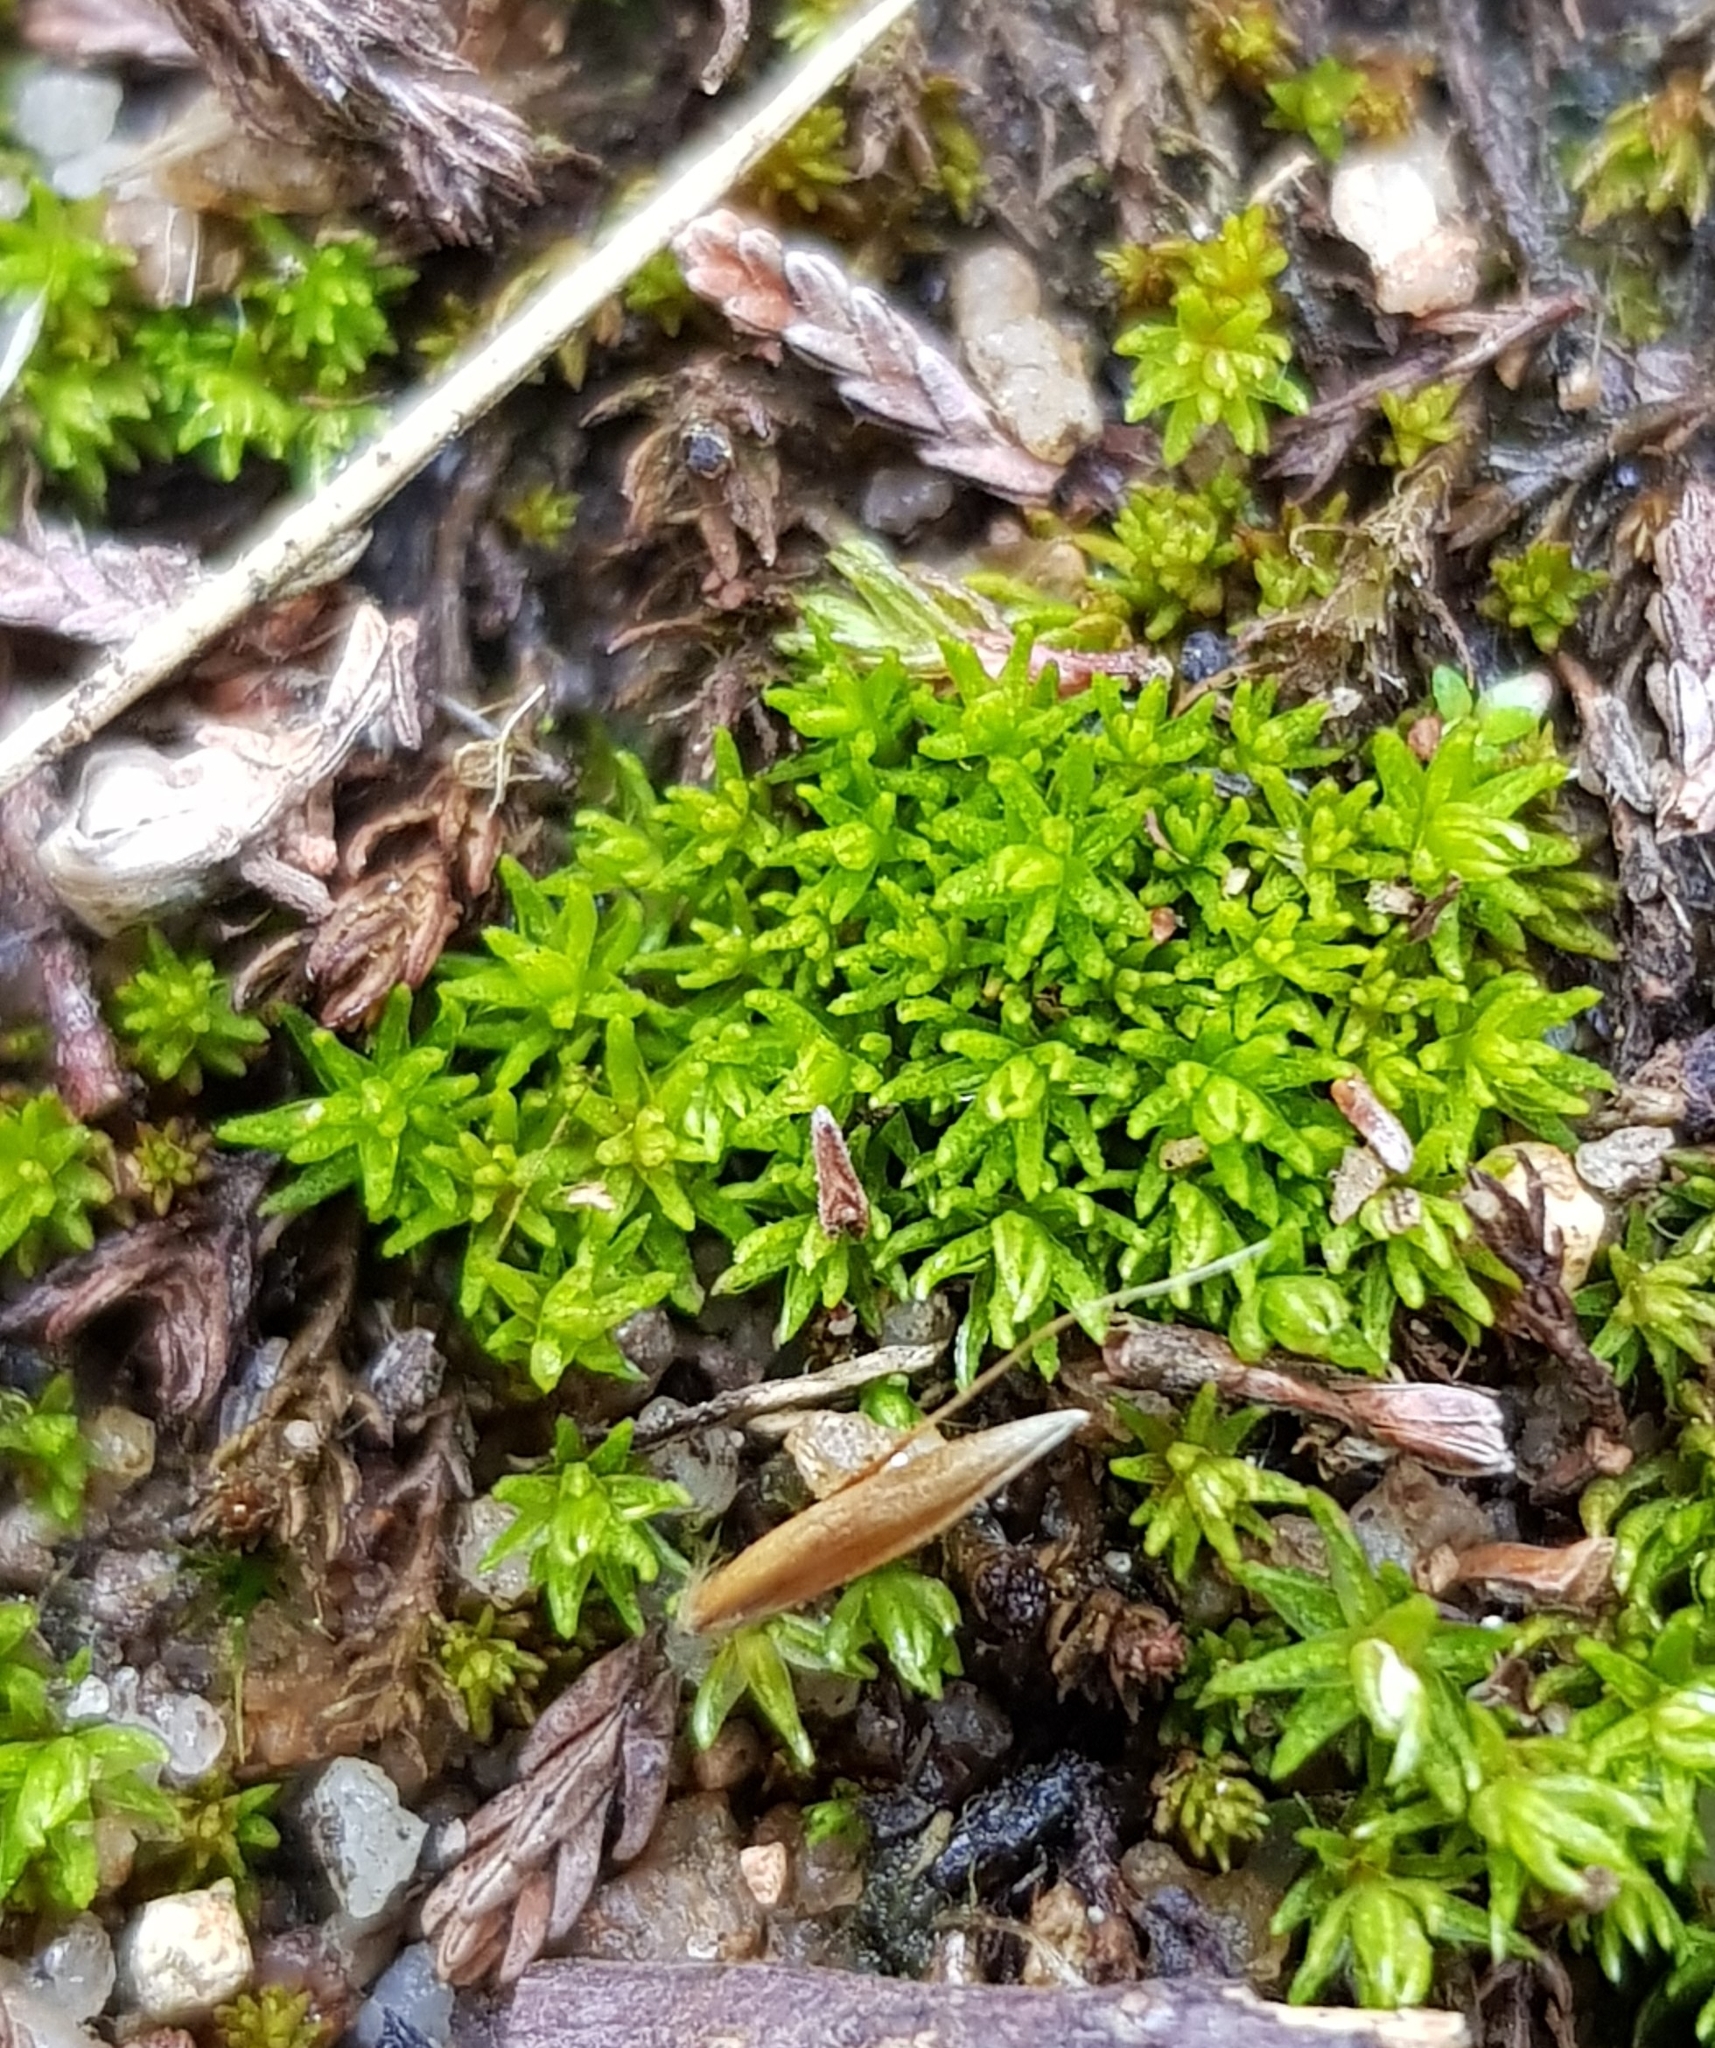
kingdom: Plantae
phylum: Bryophyta
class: Polytrichopsida
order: Polytrichales
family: Polytrichaceae
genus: Oligotrichum
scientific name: Oligotrichum hercynicum
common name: Hercynian hair moss
